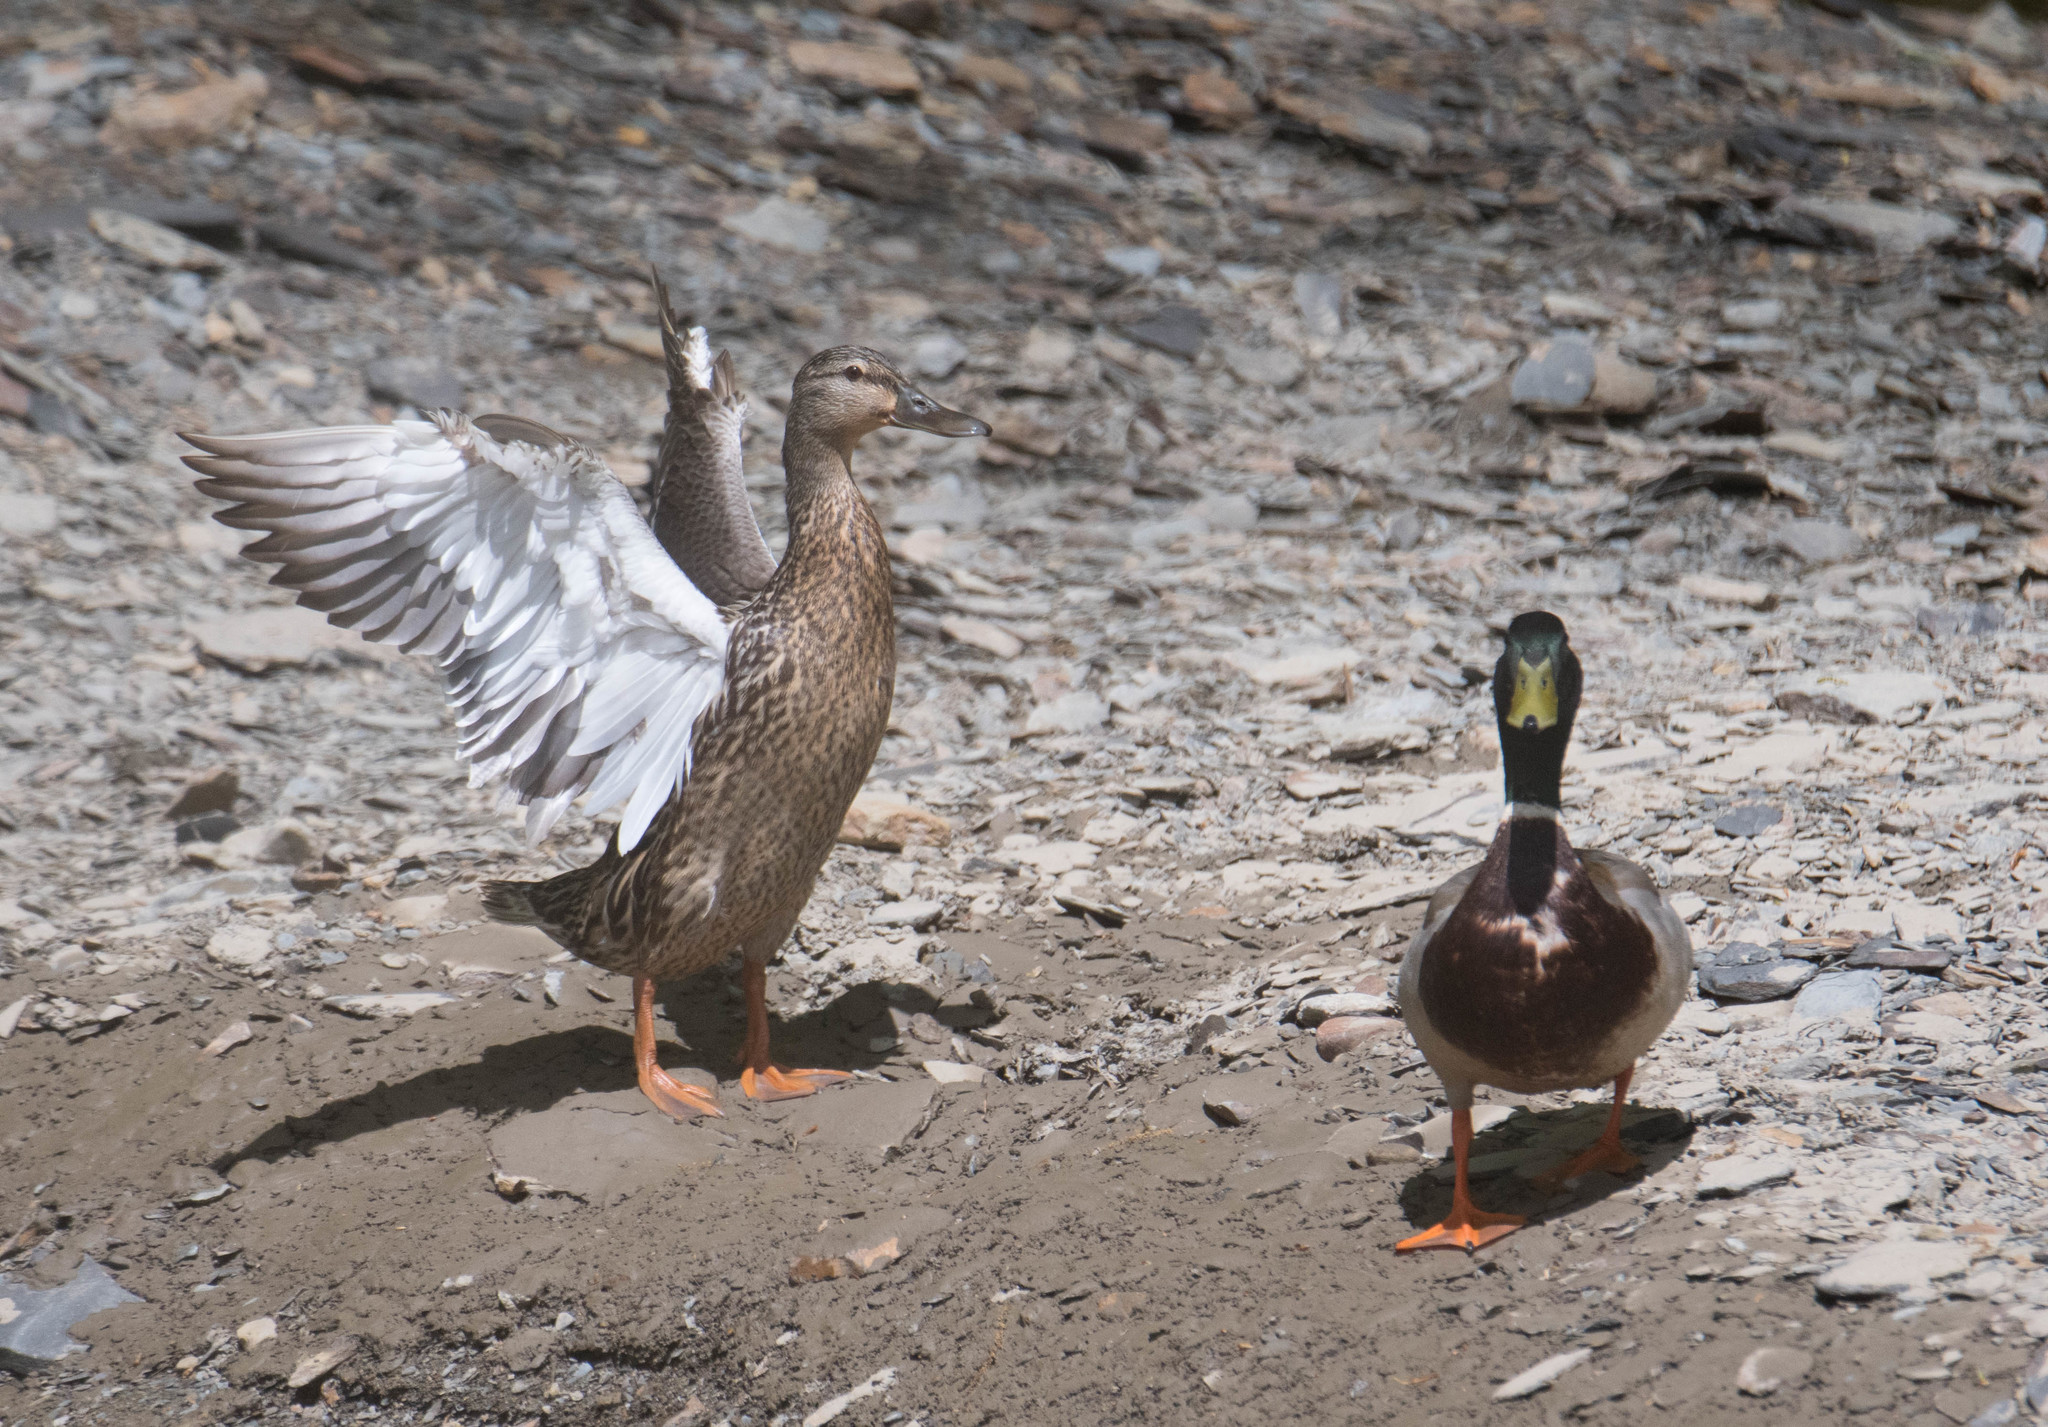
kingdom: Animalia
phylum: Chordata
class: Aves
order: Anseriformes
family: Anatidae
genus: Anas
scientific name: Anas platyrhynchos
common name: Mallard
